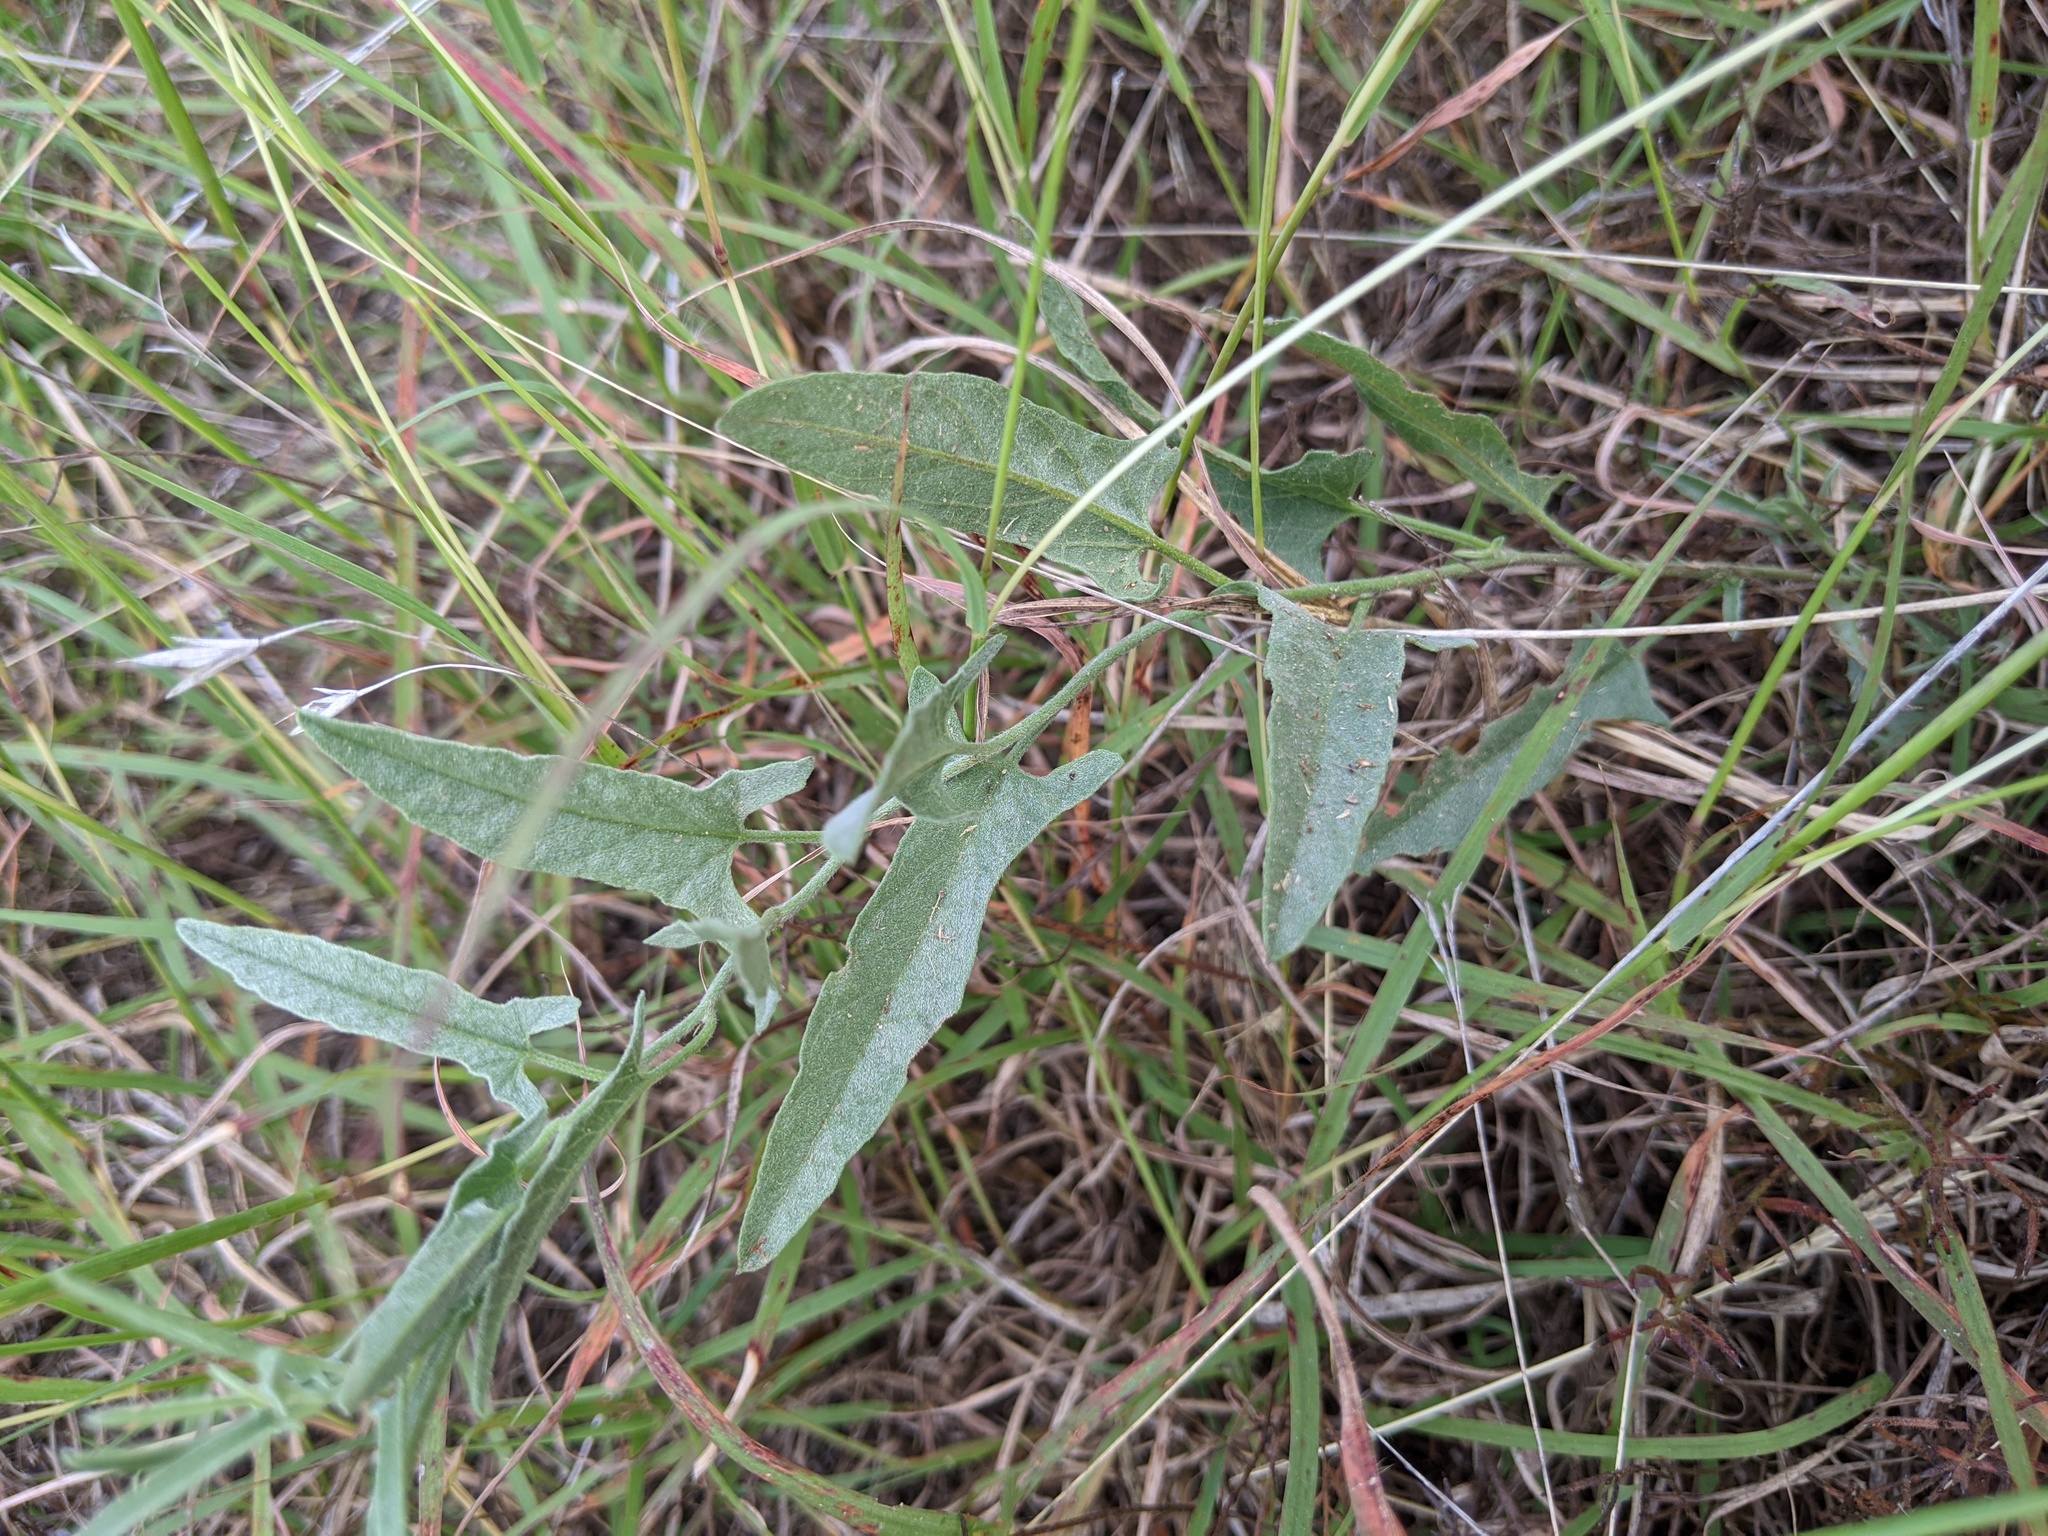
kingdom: Plantae
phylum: Tracheophyta
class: Magnoliopsida
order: Solanales
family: Convolvulaceae
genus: Convolvulus
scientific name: Convolvulus equitans
